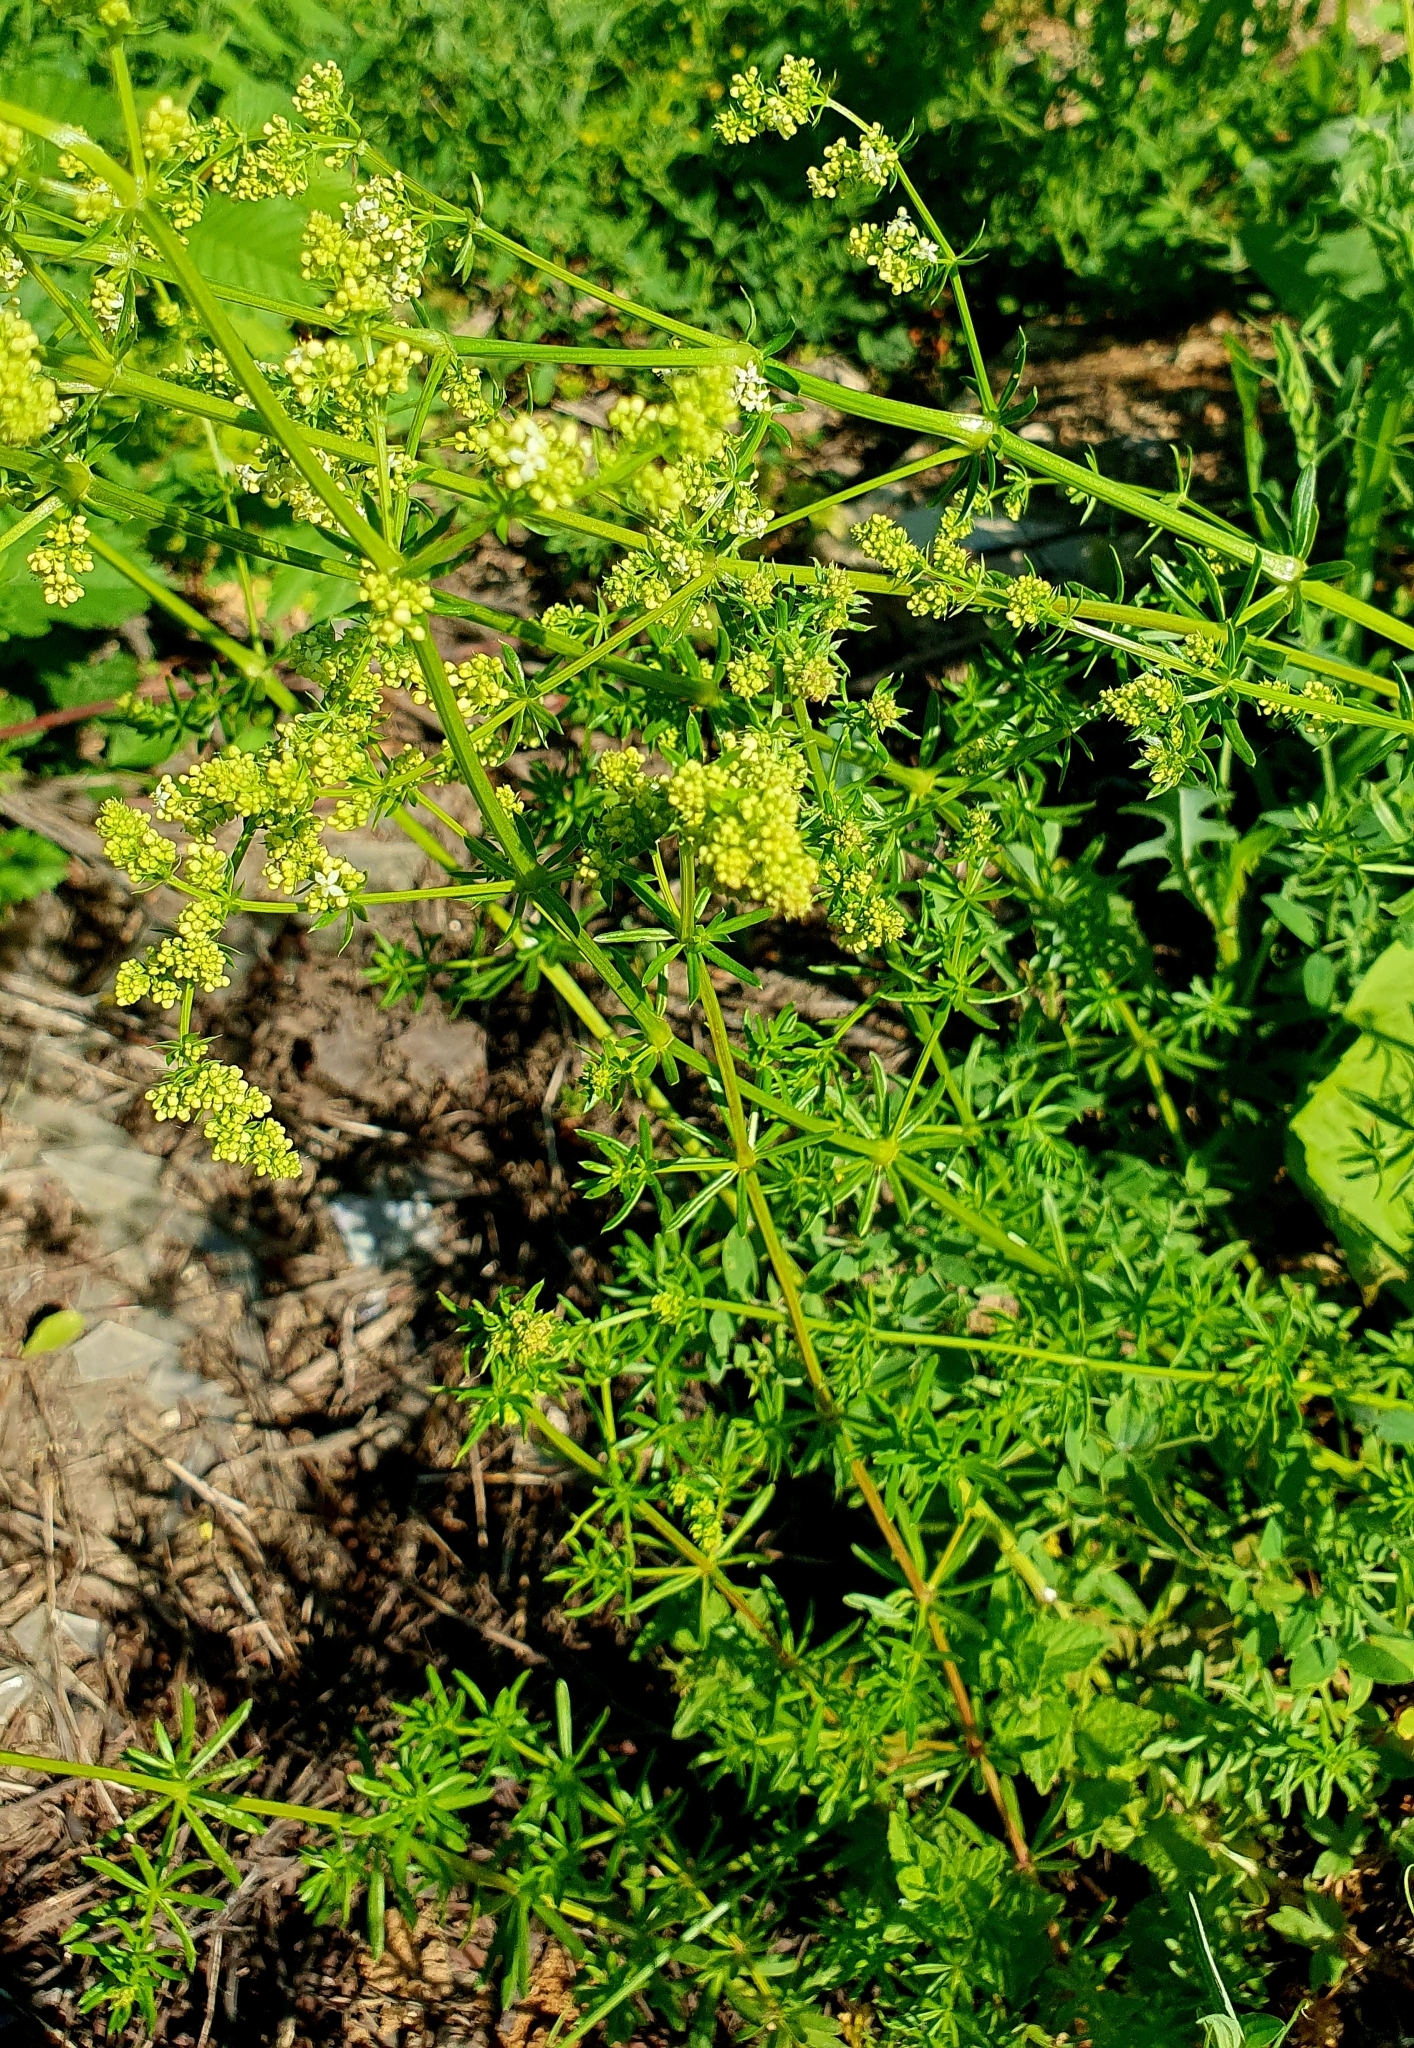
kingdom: Plantae
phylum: Tracheophyta
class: Magnoliopsida
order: Gentianales
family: Rubiaceae
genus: Galium
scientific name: Galium mollugo
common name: Hedge bedstraw
